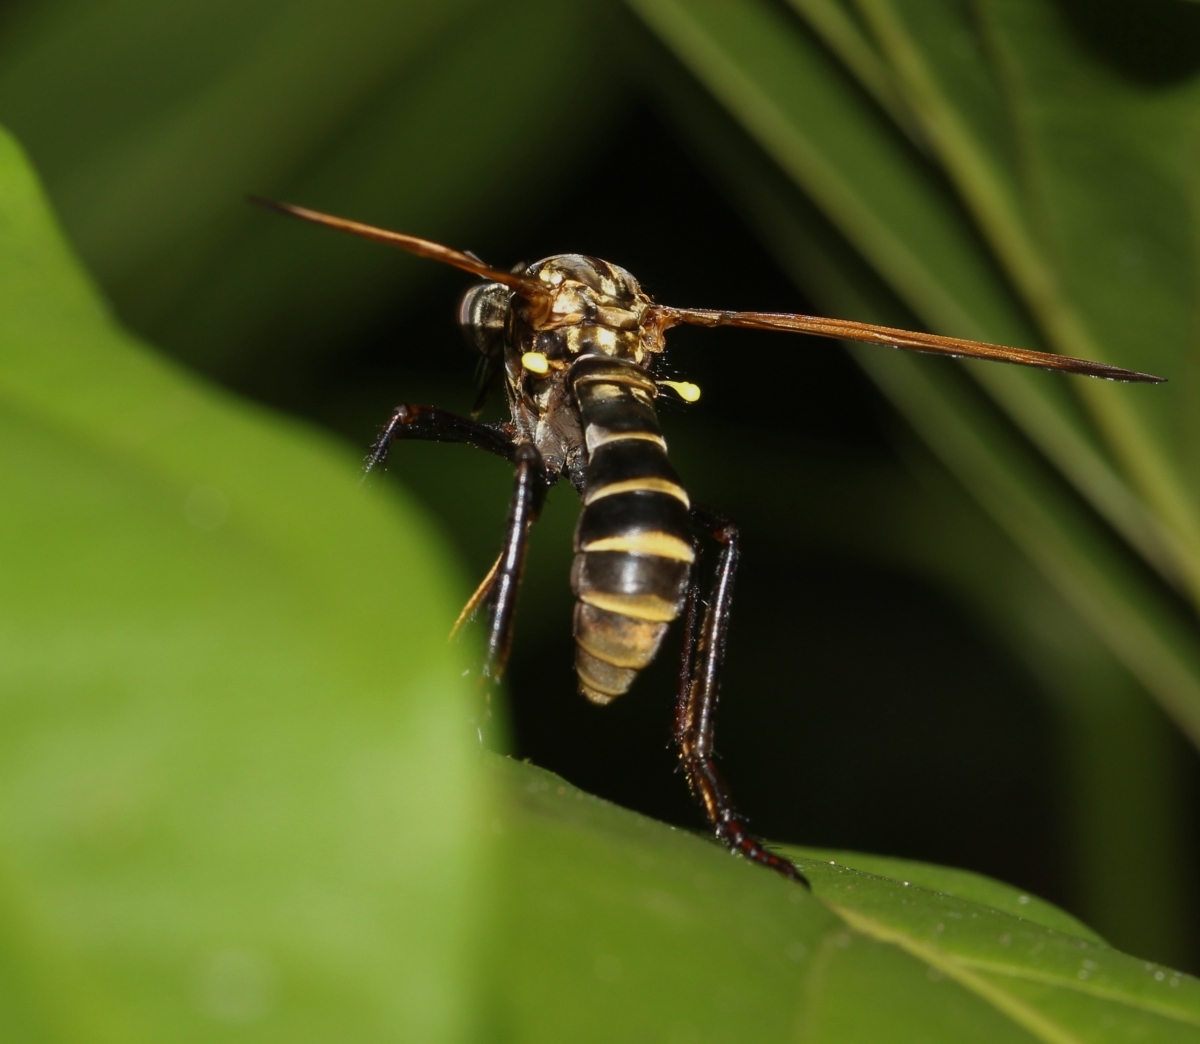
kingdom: Animalia
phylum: Arthropoda
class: Insecta
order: Diptera
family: Asilidae
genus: Blepharepium
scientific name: Blepharepium
